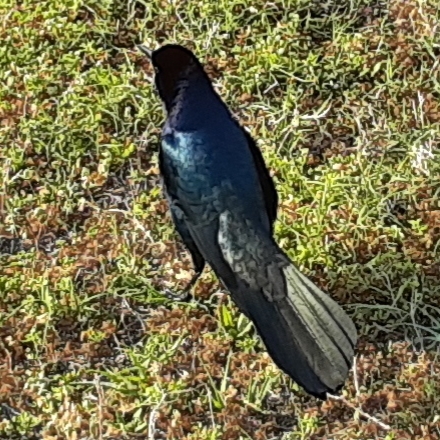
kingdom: Animalia
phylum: Chordata
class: Aves
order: Passeriformes
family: Icteridae
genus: Quiscalus
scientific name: Quiscalus major
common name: Boat-tailed grackle
